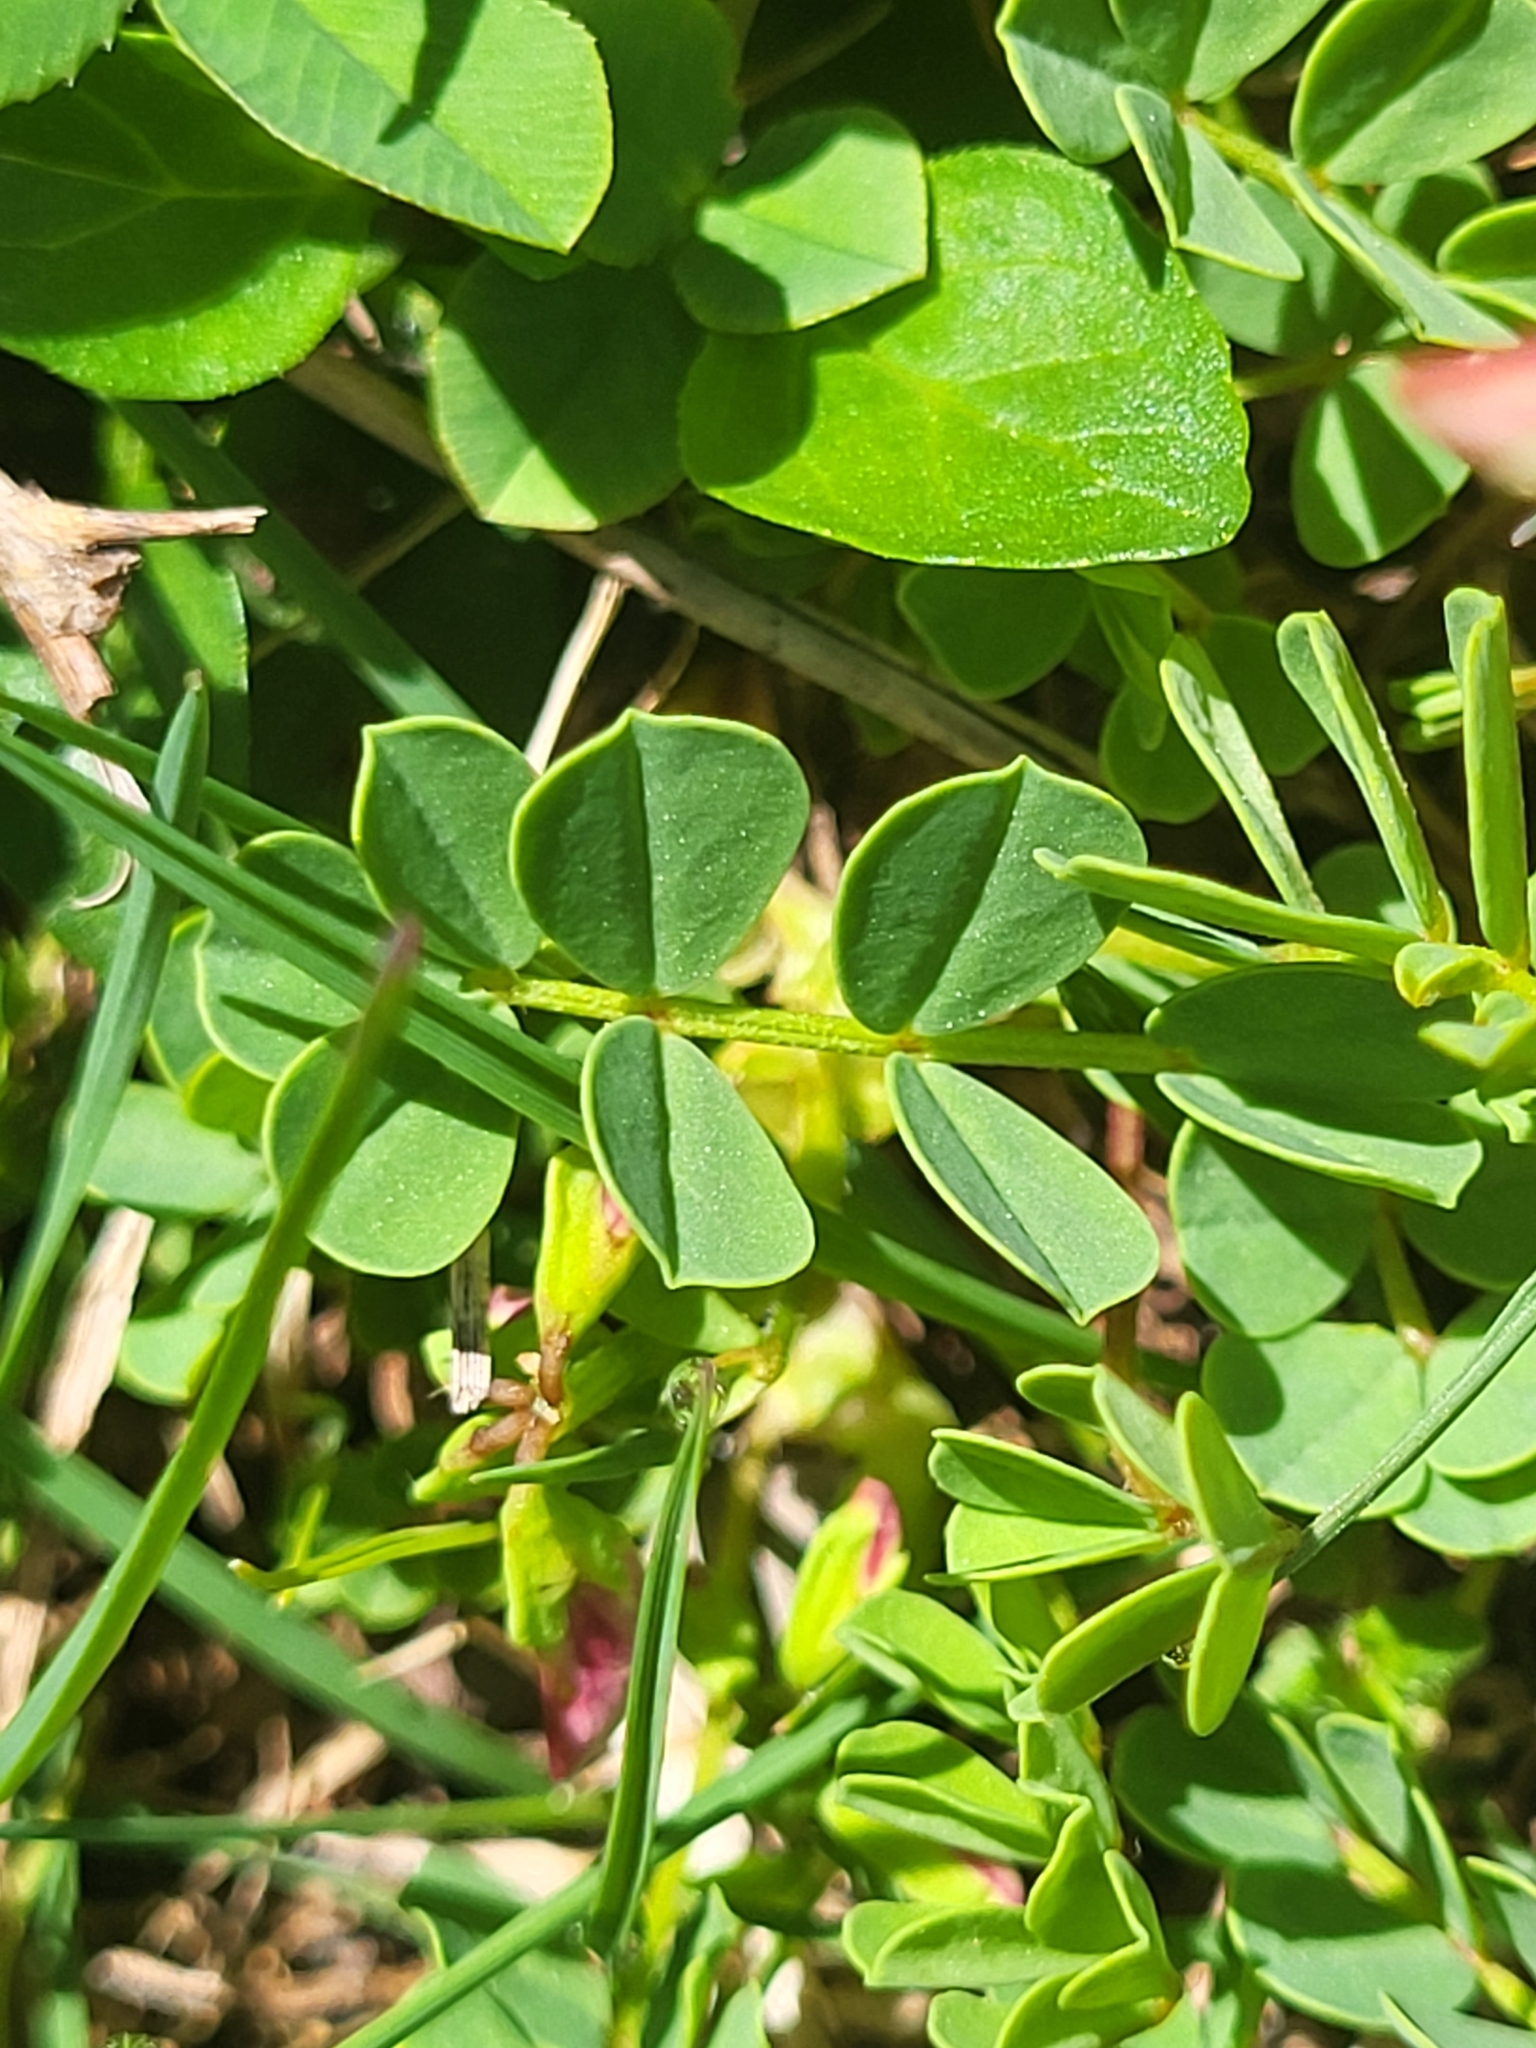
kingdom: Plantae
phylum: Tracheophyta
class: Magnoliopsida
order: Fabales
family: Fabaceae
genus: Coronilla
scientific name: Coronilla orientalis
